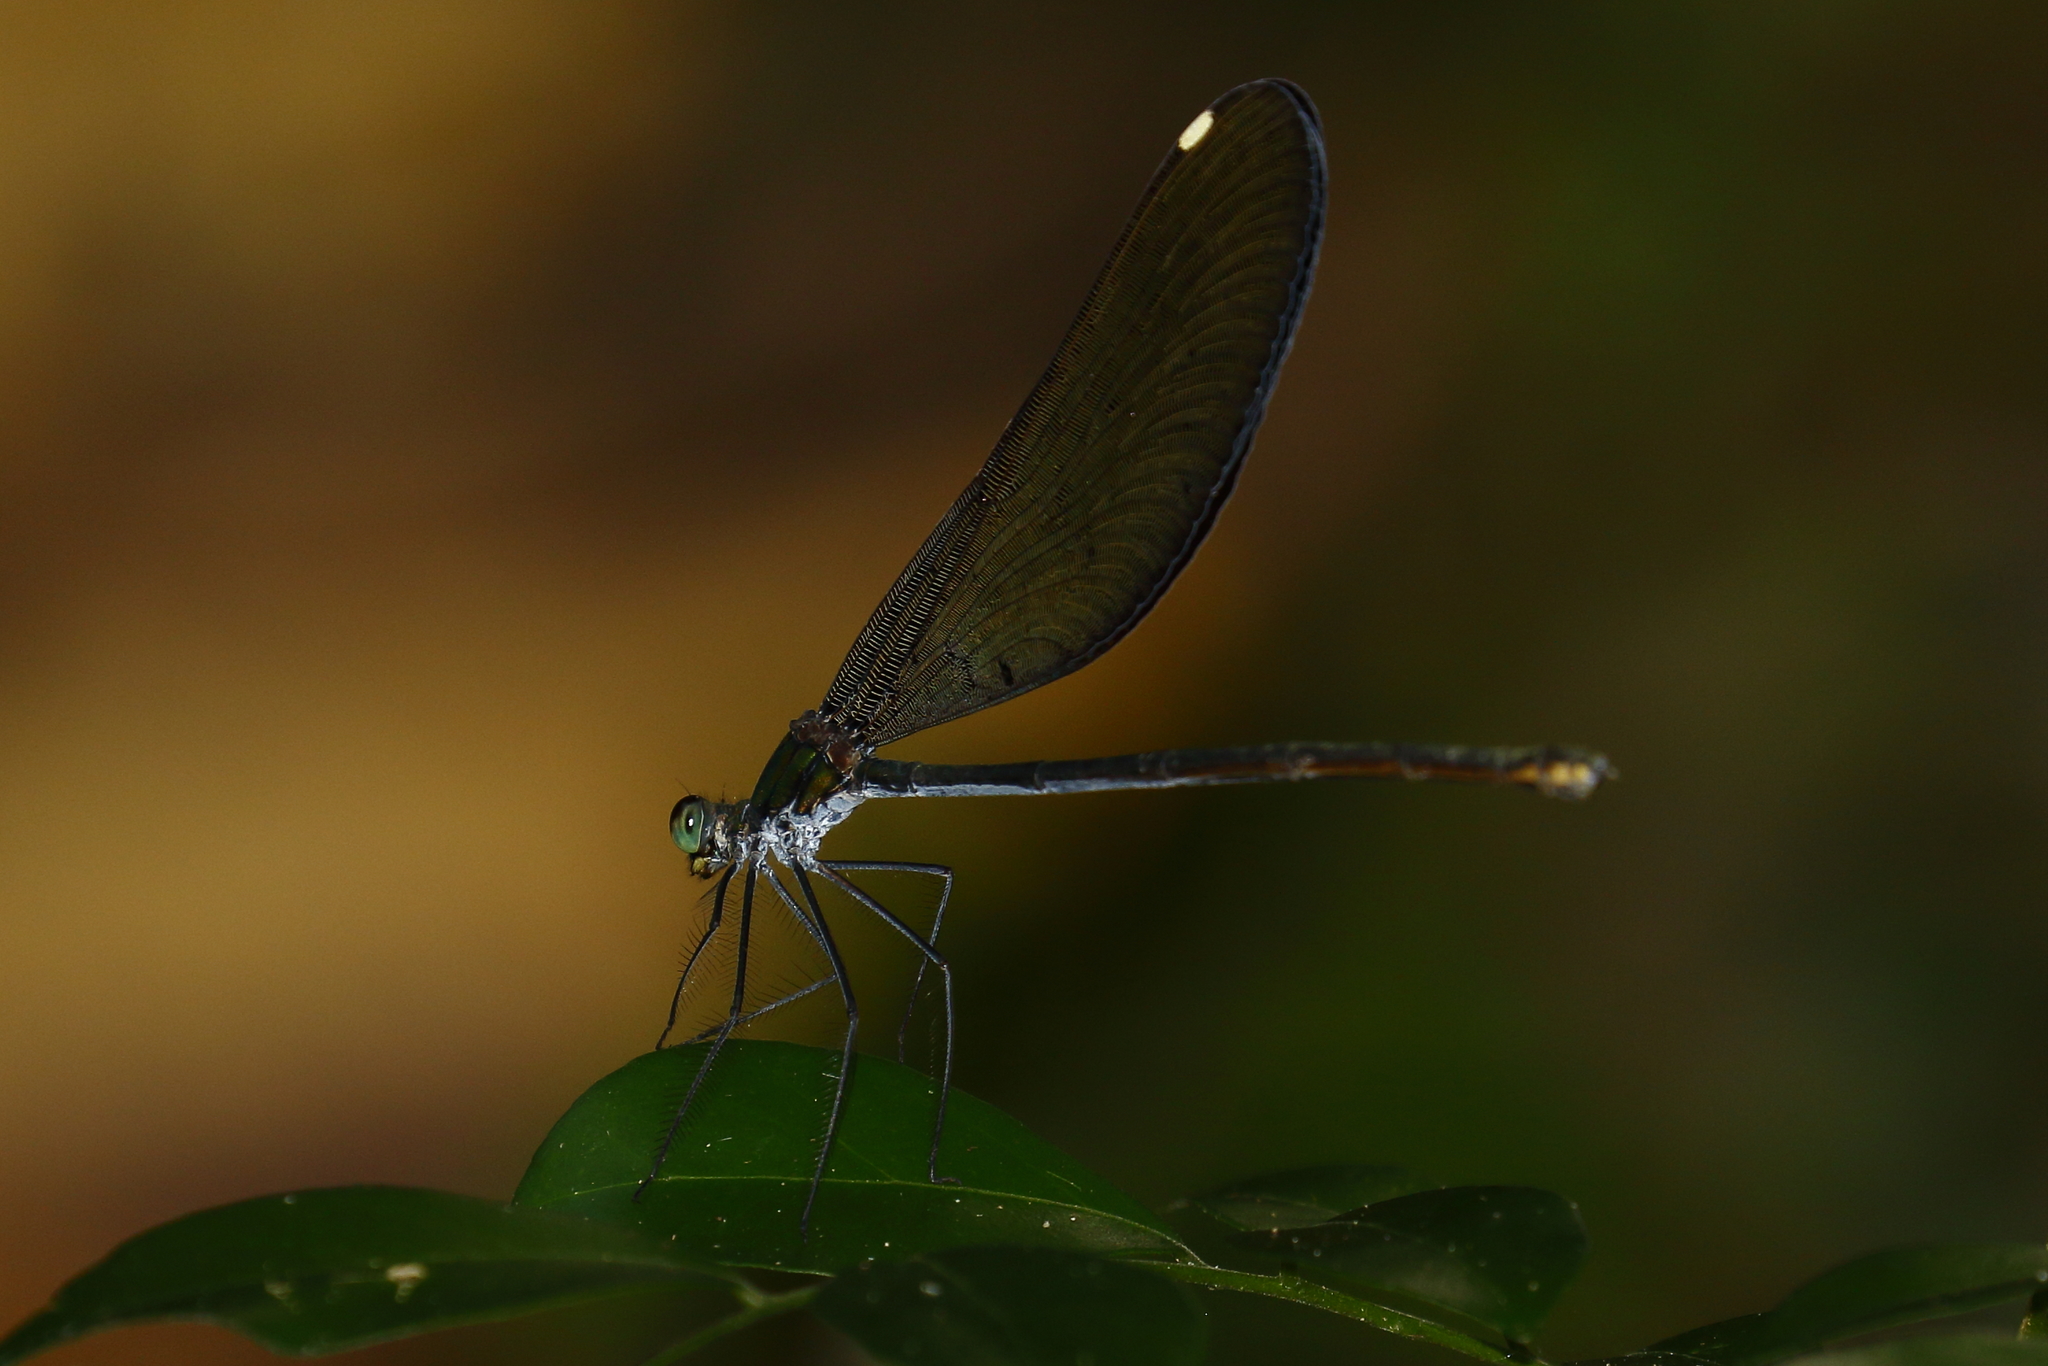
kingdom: Animalia
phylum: Arthropoda
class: Insecta
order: Odonata
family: Calopterygidae
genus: Matrona
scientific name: Matrona cyanoptera
